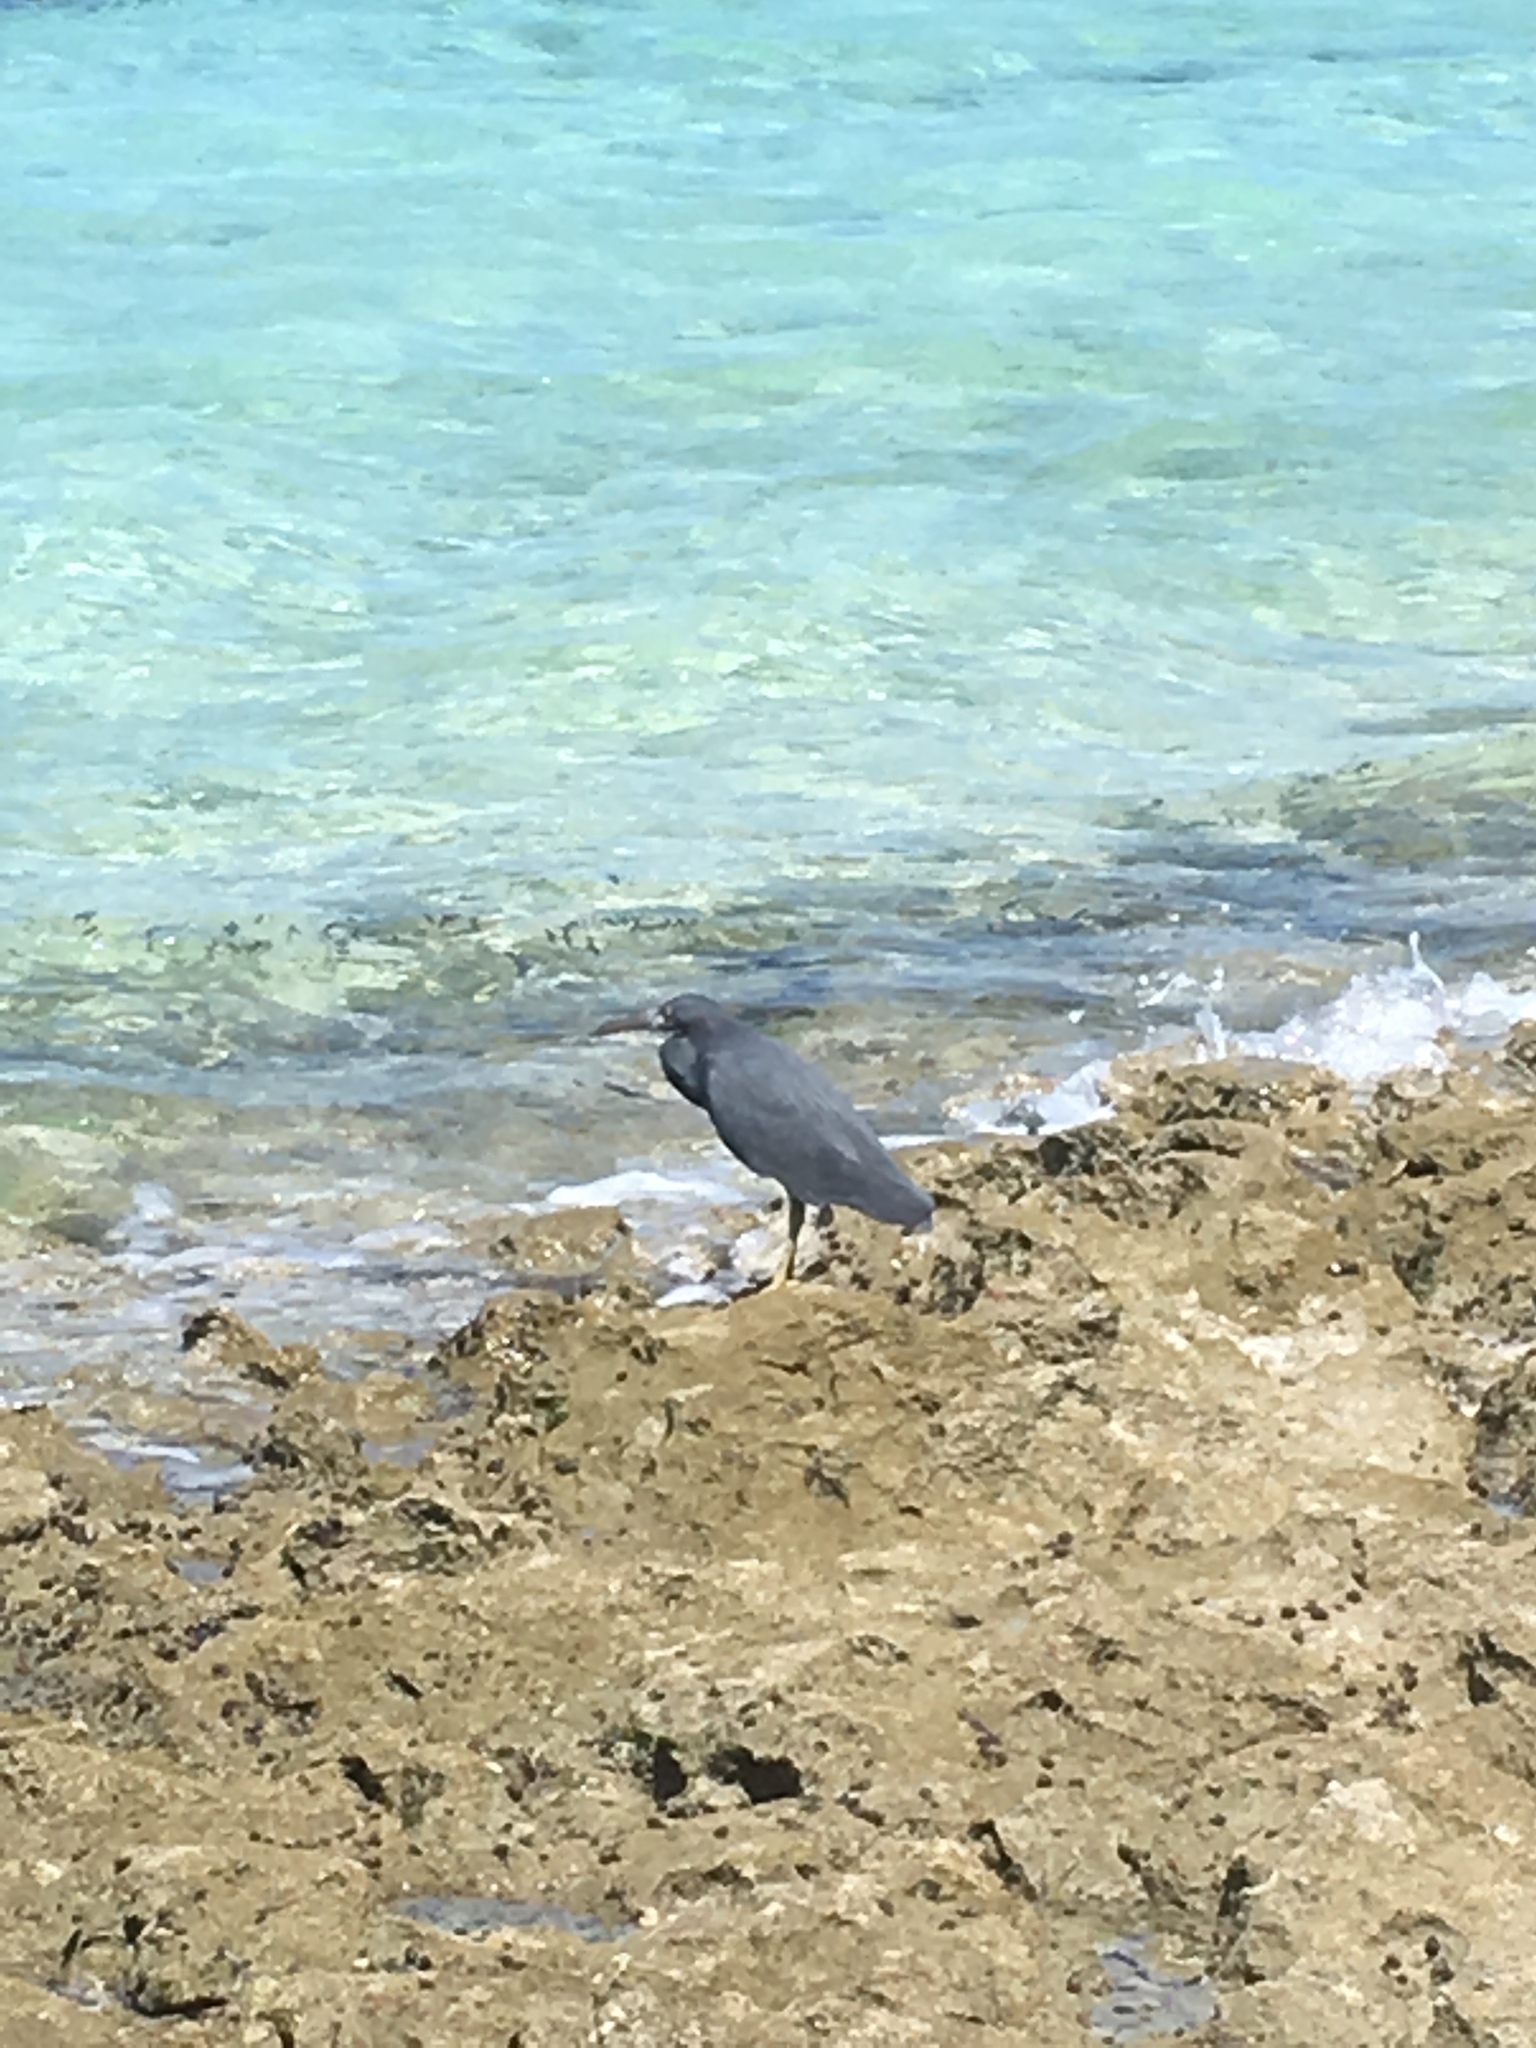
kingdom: Animalia
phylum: Chordata
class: Aves
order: Pelecaniformes
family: Ardeidae
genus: Egretta
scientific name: Egretta sacra
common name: Pacific reef heron
